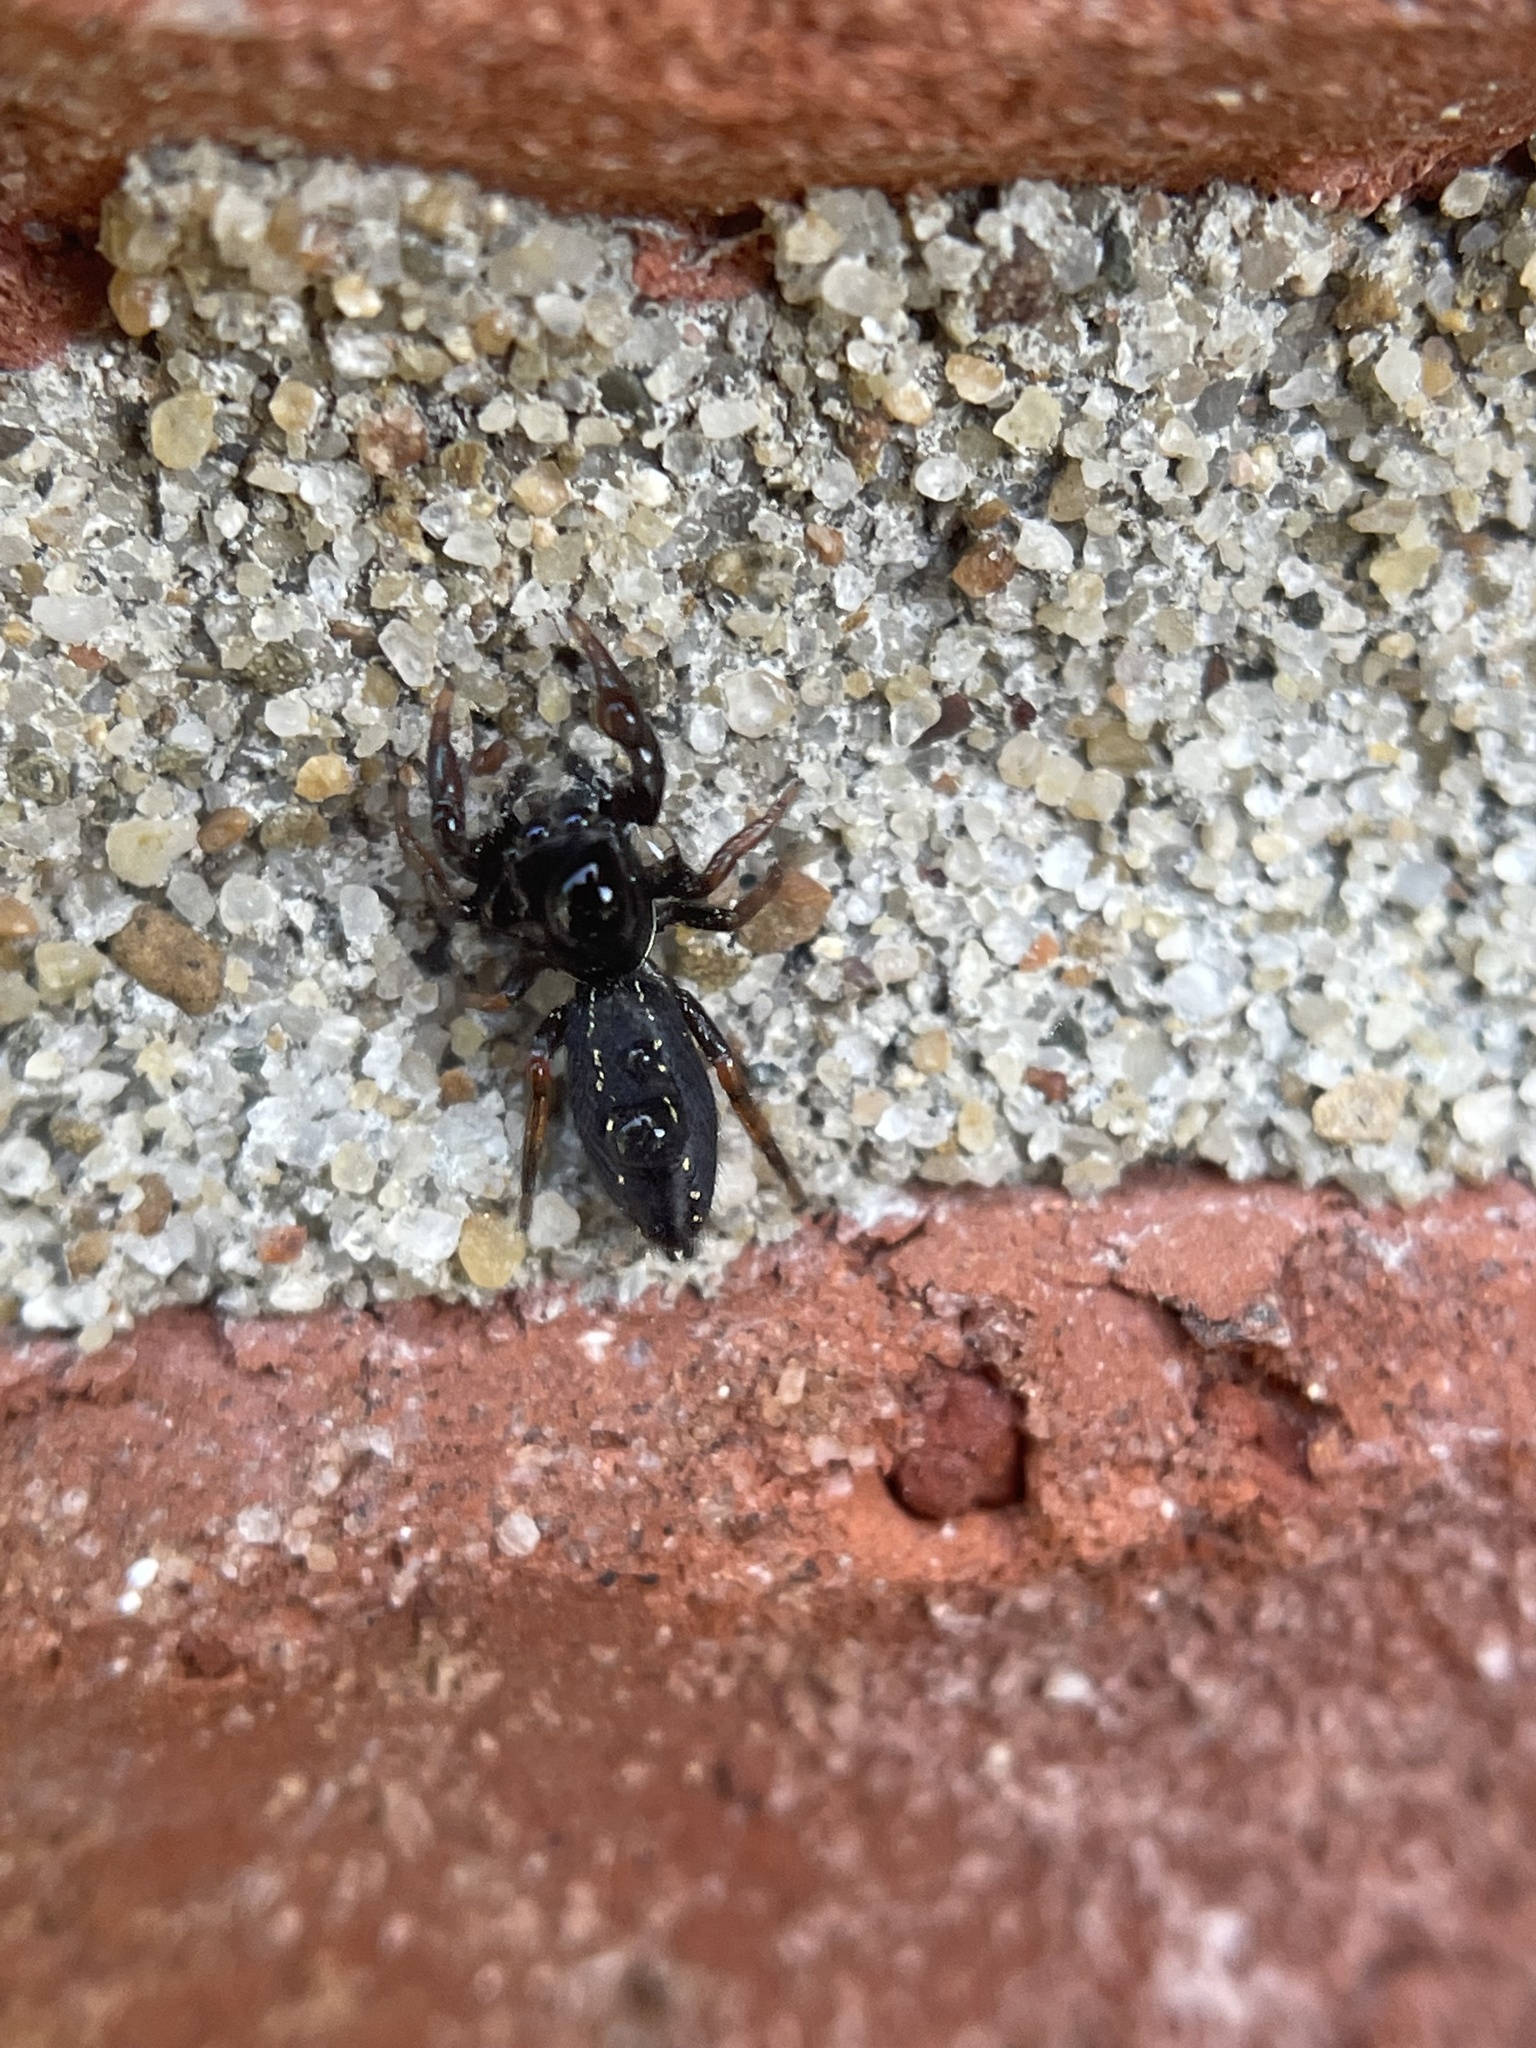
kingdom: Animalia
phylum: Arthropoda
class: Arachnida
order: Araneae
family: Salticidae
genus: Metacyrba
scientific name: Metacyrba taeniola
